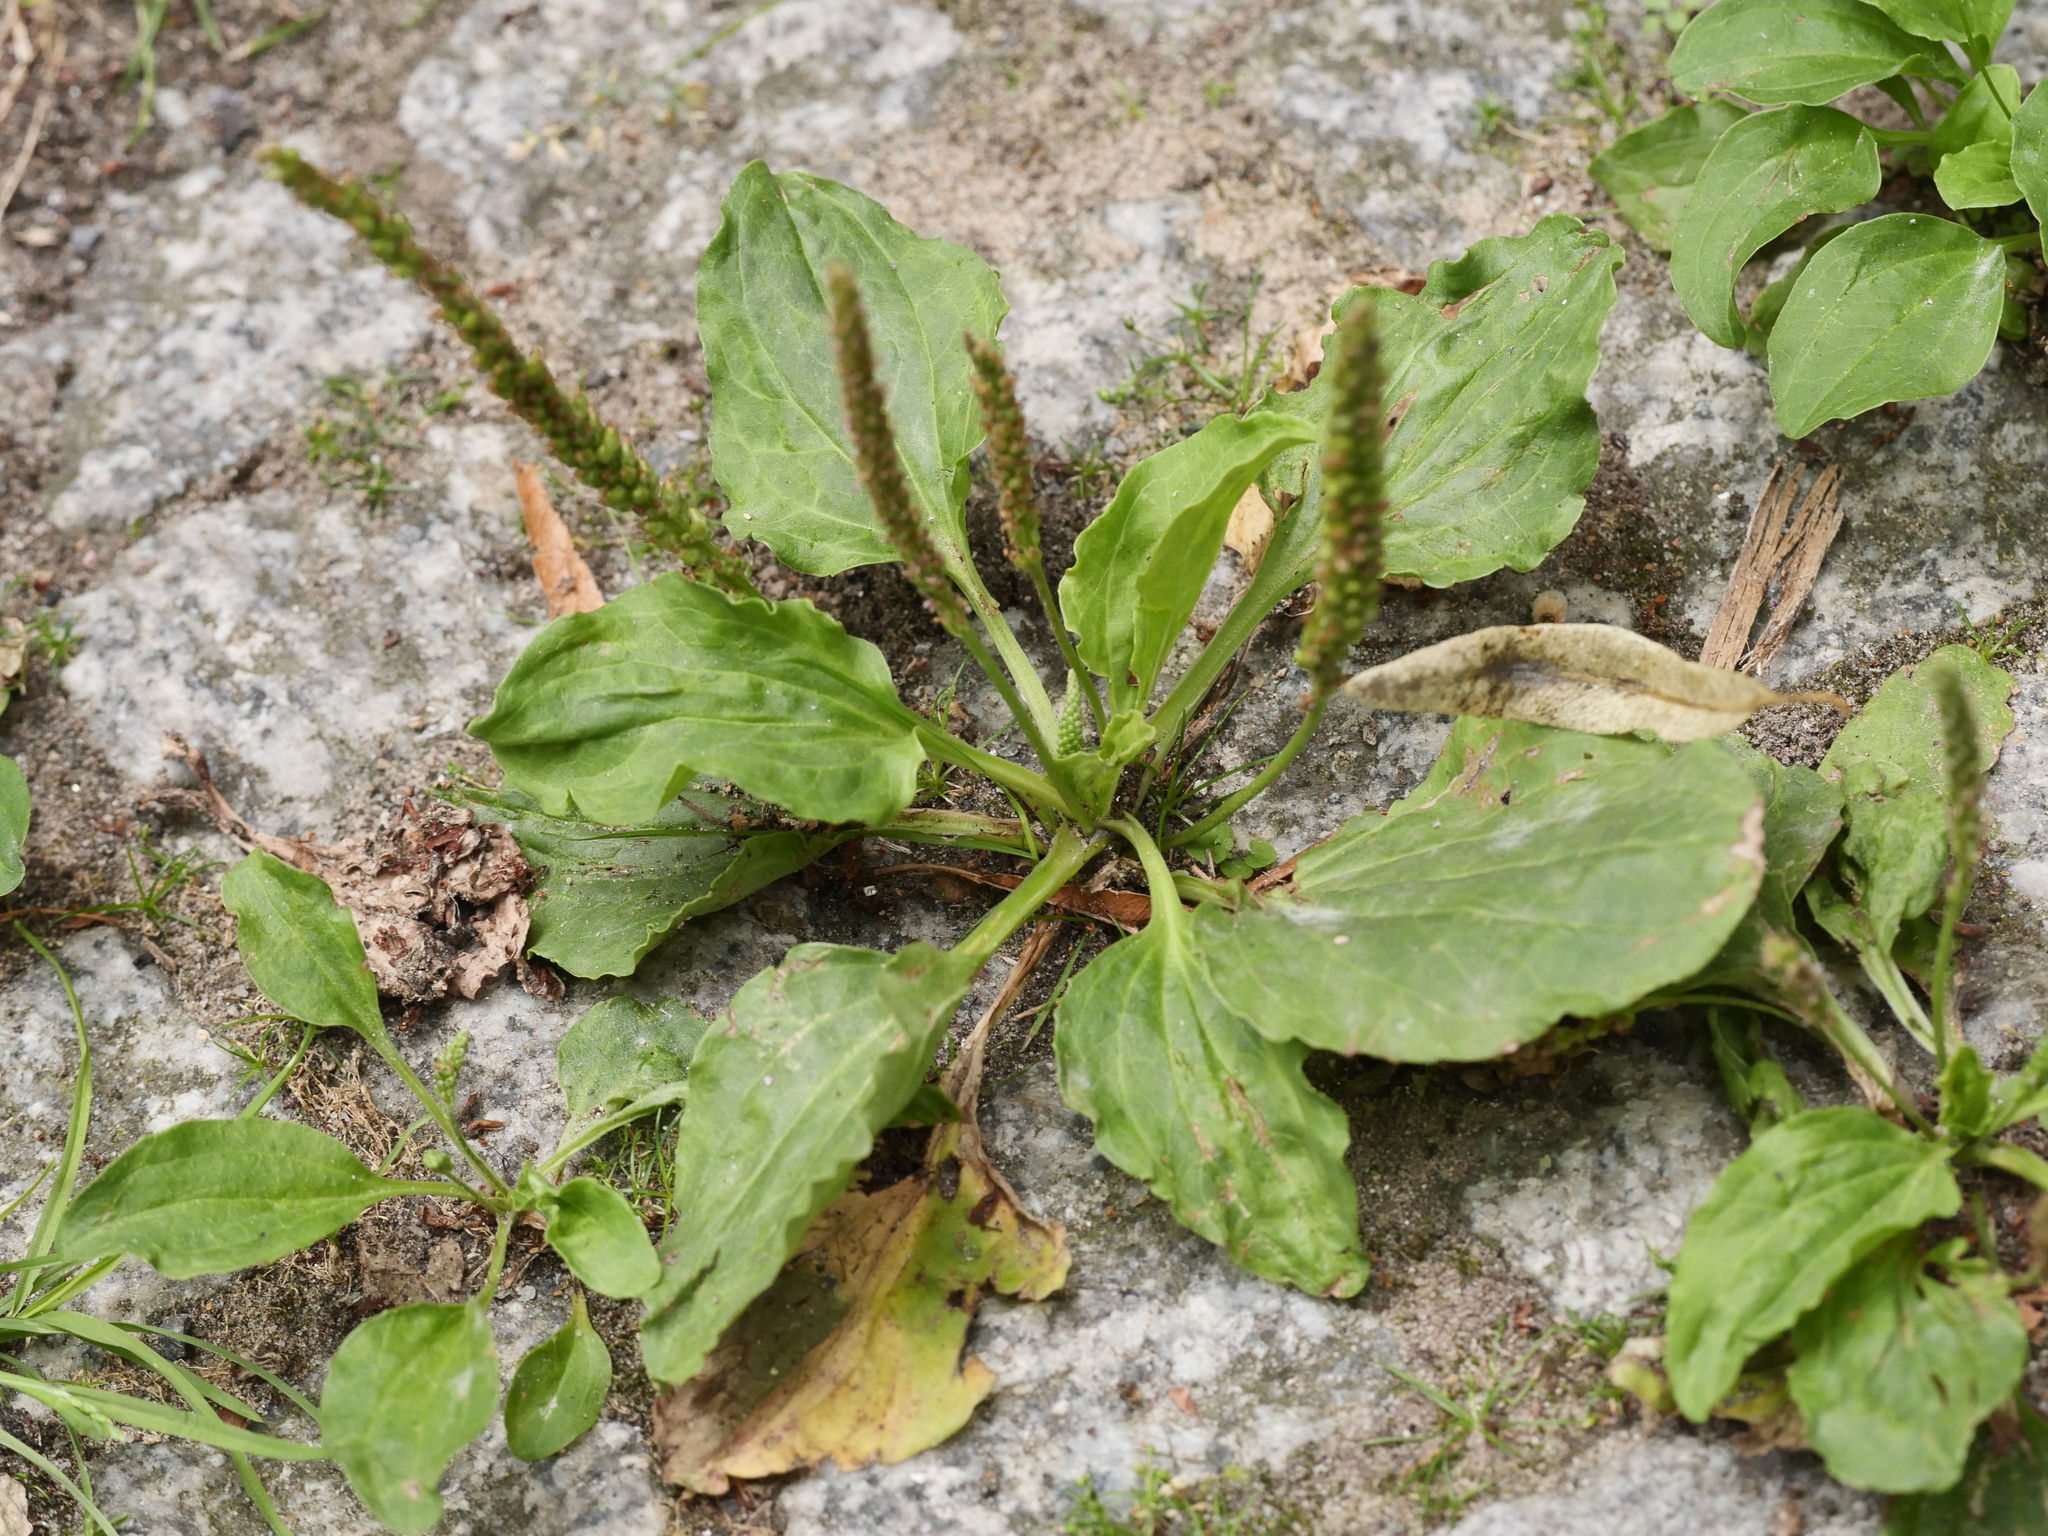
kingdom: Plantae
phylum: Tracheophyta
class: Magnoliopsida
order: Lamiales
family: Plantaginaceae
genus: Plantago
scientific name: Plantago major
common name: Common plantain
